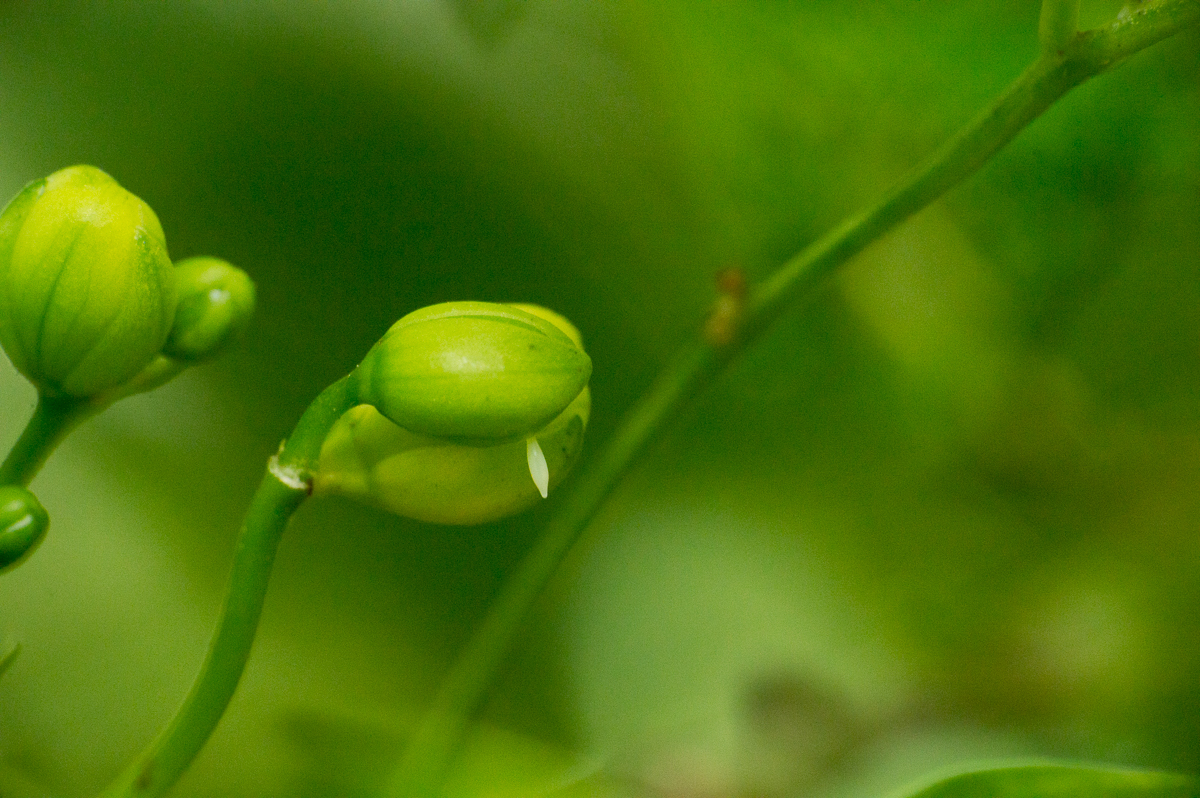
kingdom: Animalia
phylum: Arthropoda
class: Insecta
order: Lepidoptera
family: Pieridae
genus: Teriocolias
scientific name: Teriocolias
